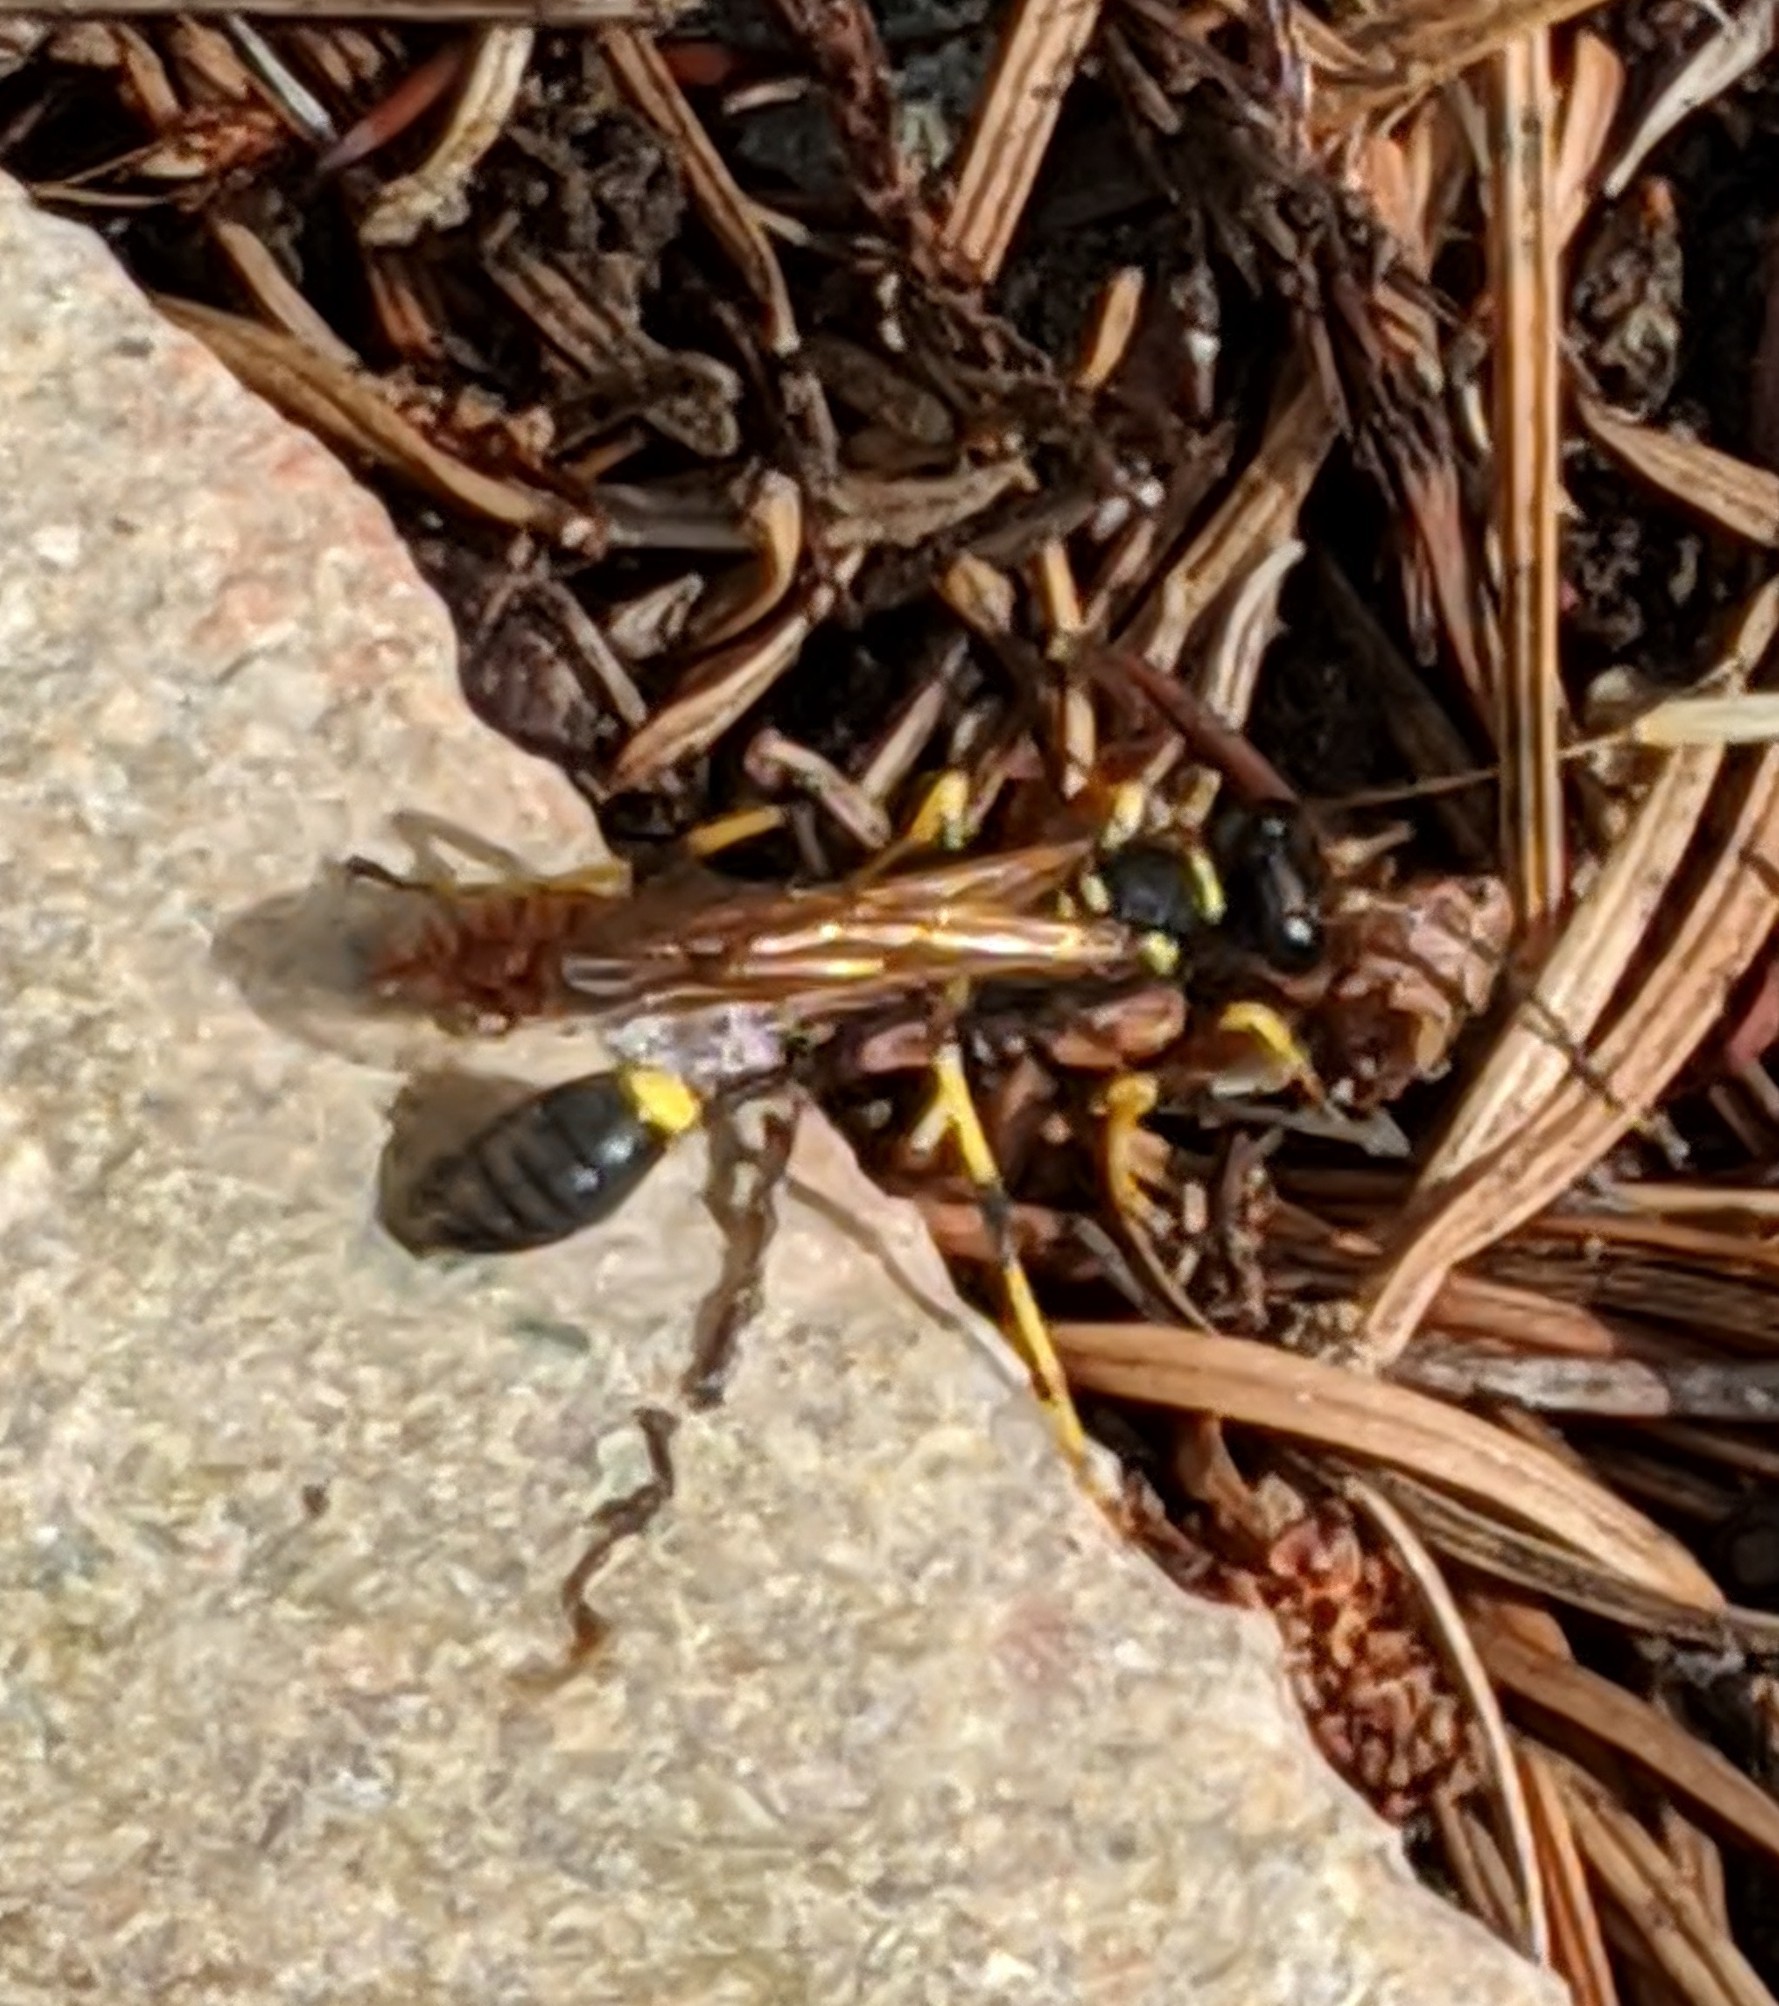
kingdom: Animalia
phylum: Arthropoda
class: Insecta
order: Hymenoptera
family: Sphecidae
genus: Sceliphron
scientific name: Sceliphron caementarium
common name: Mud dauber
